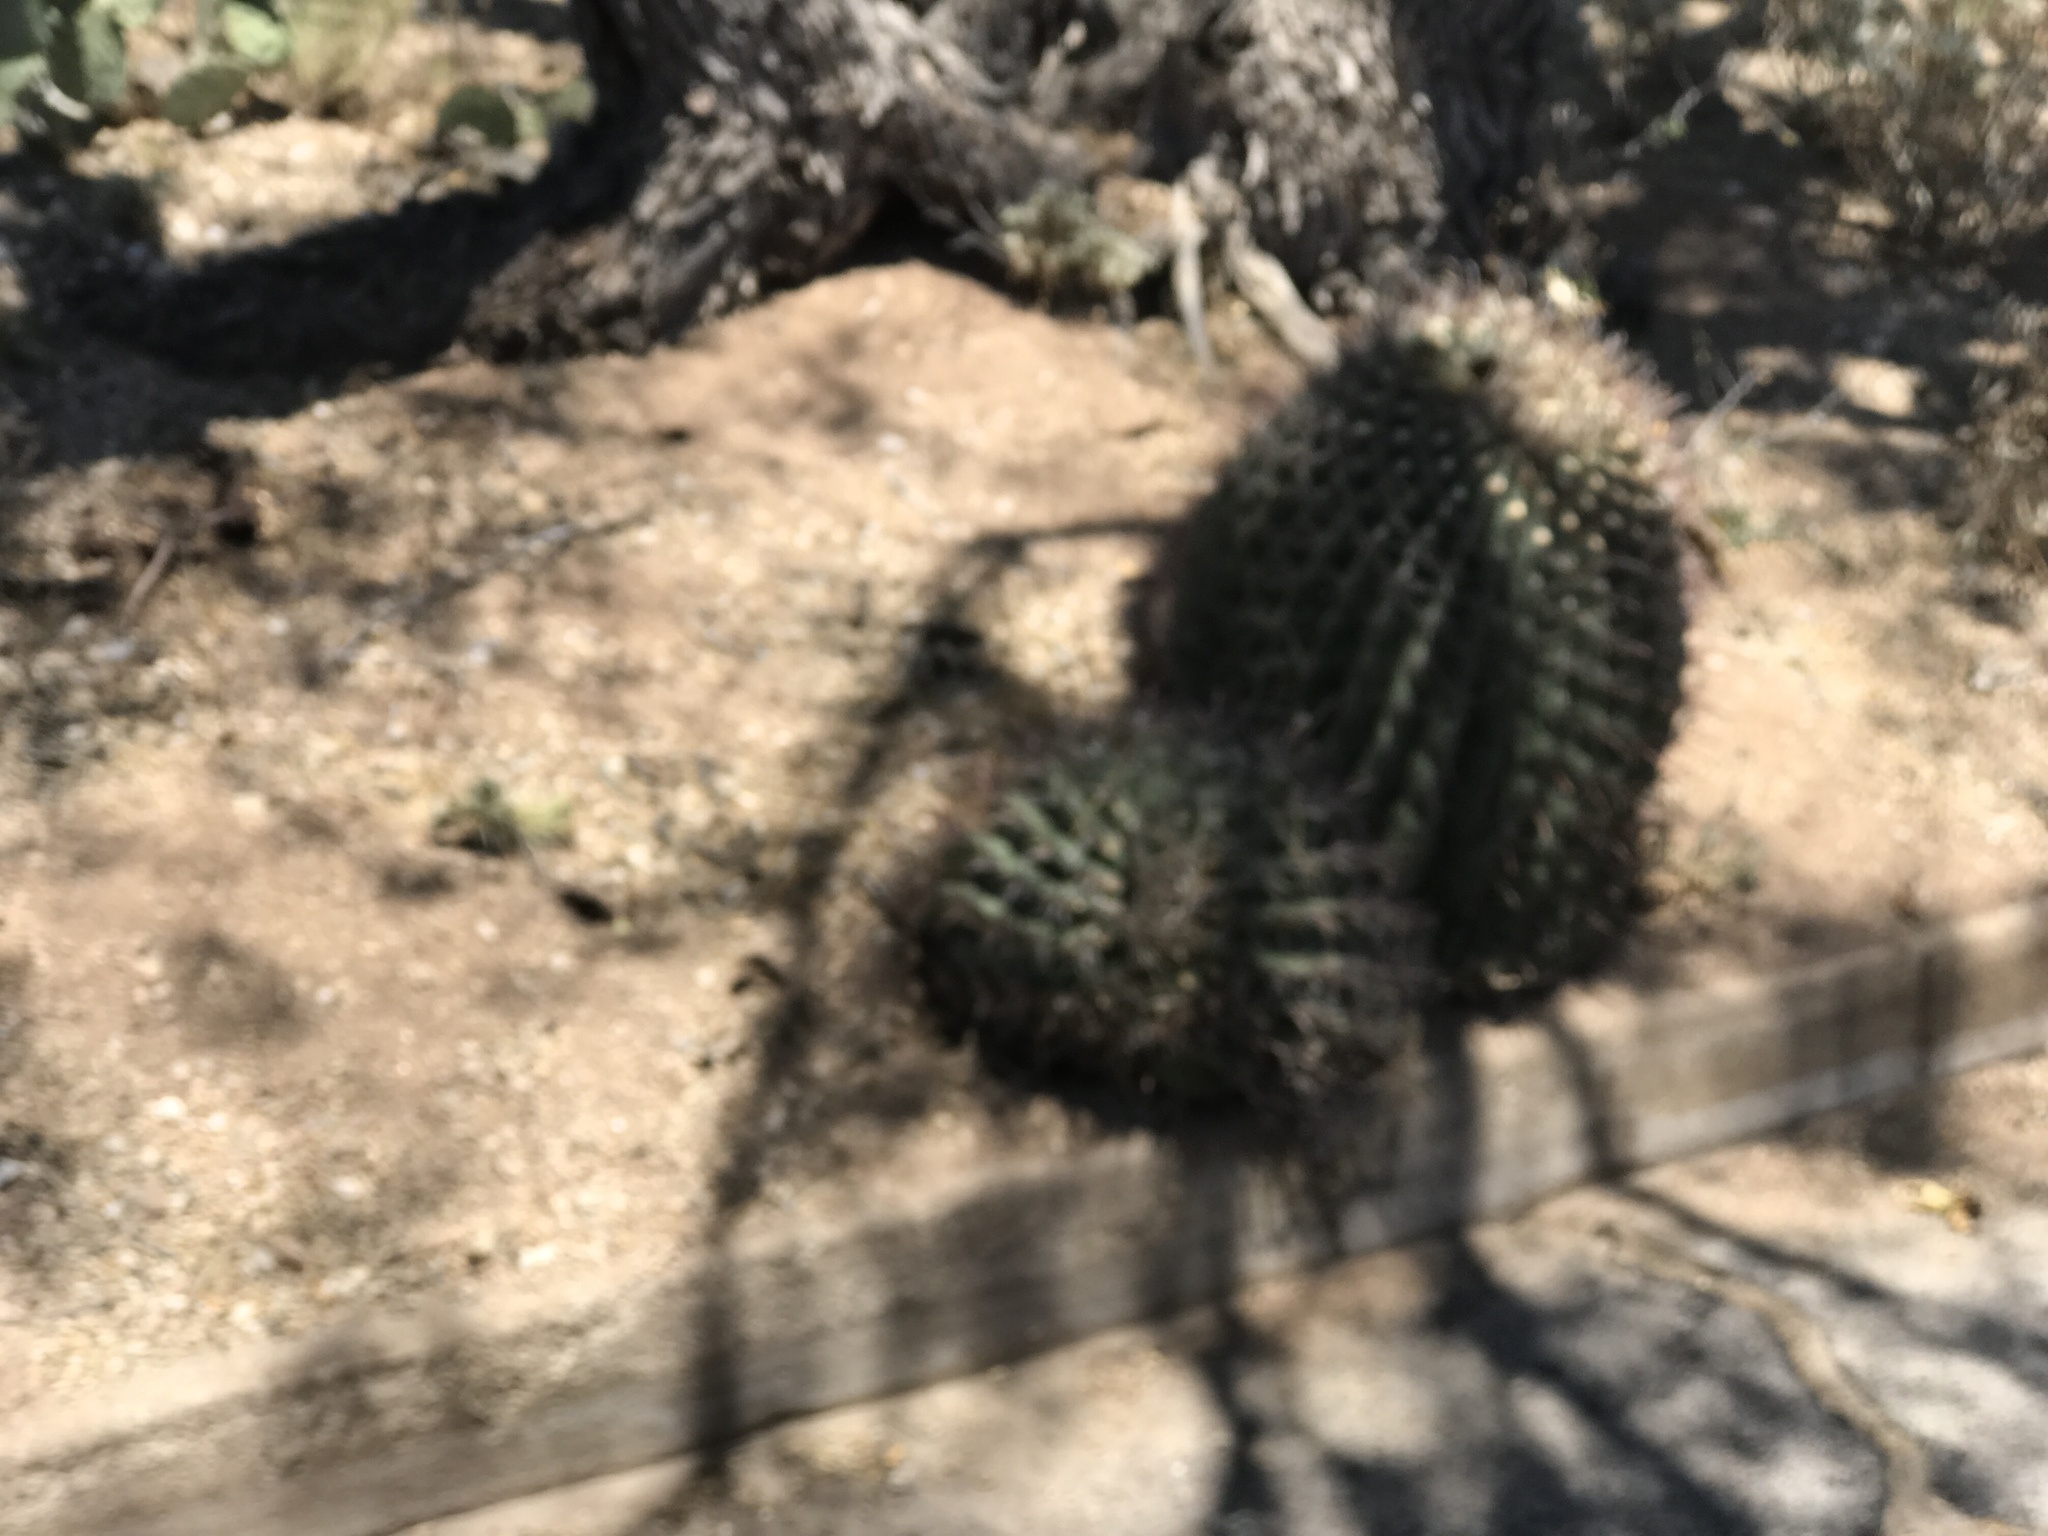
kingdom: Plantae
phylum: Tracheophyta
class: Magnoliopsida
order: Caryophyllales
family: Cactaceae
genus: Ferocactus
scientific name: Ferocactus wislizeni
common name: Candy barrel cactus
